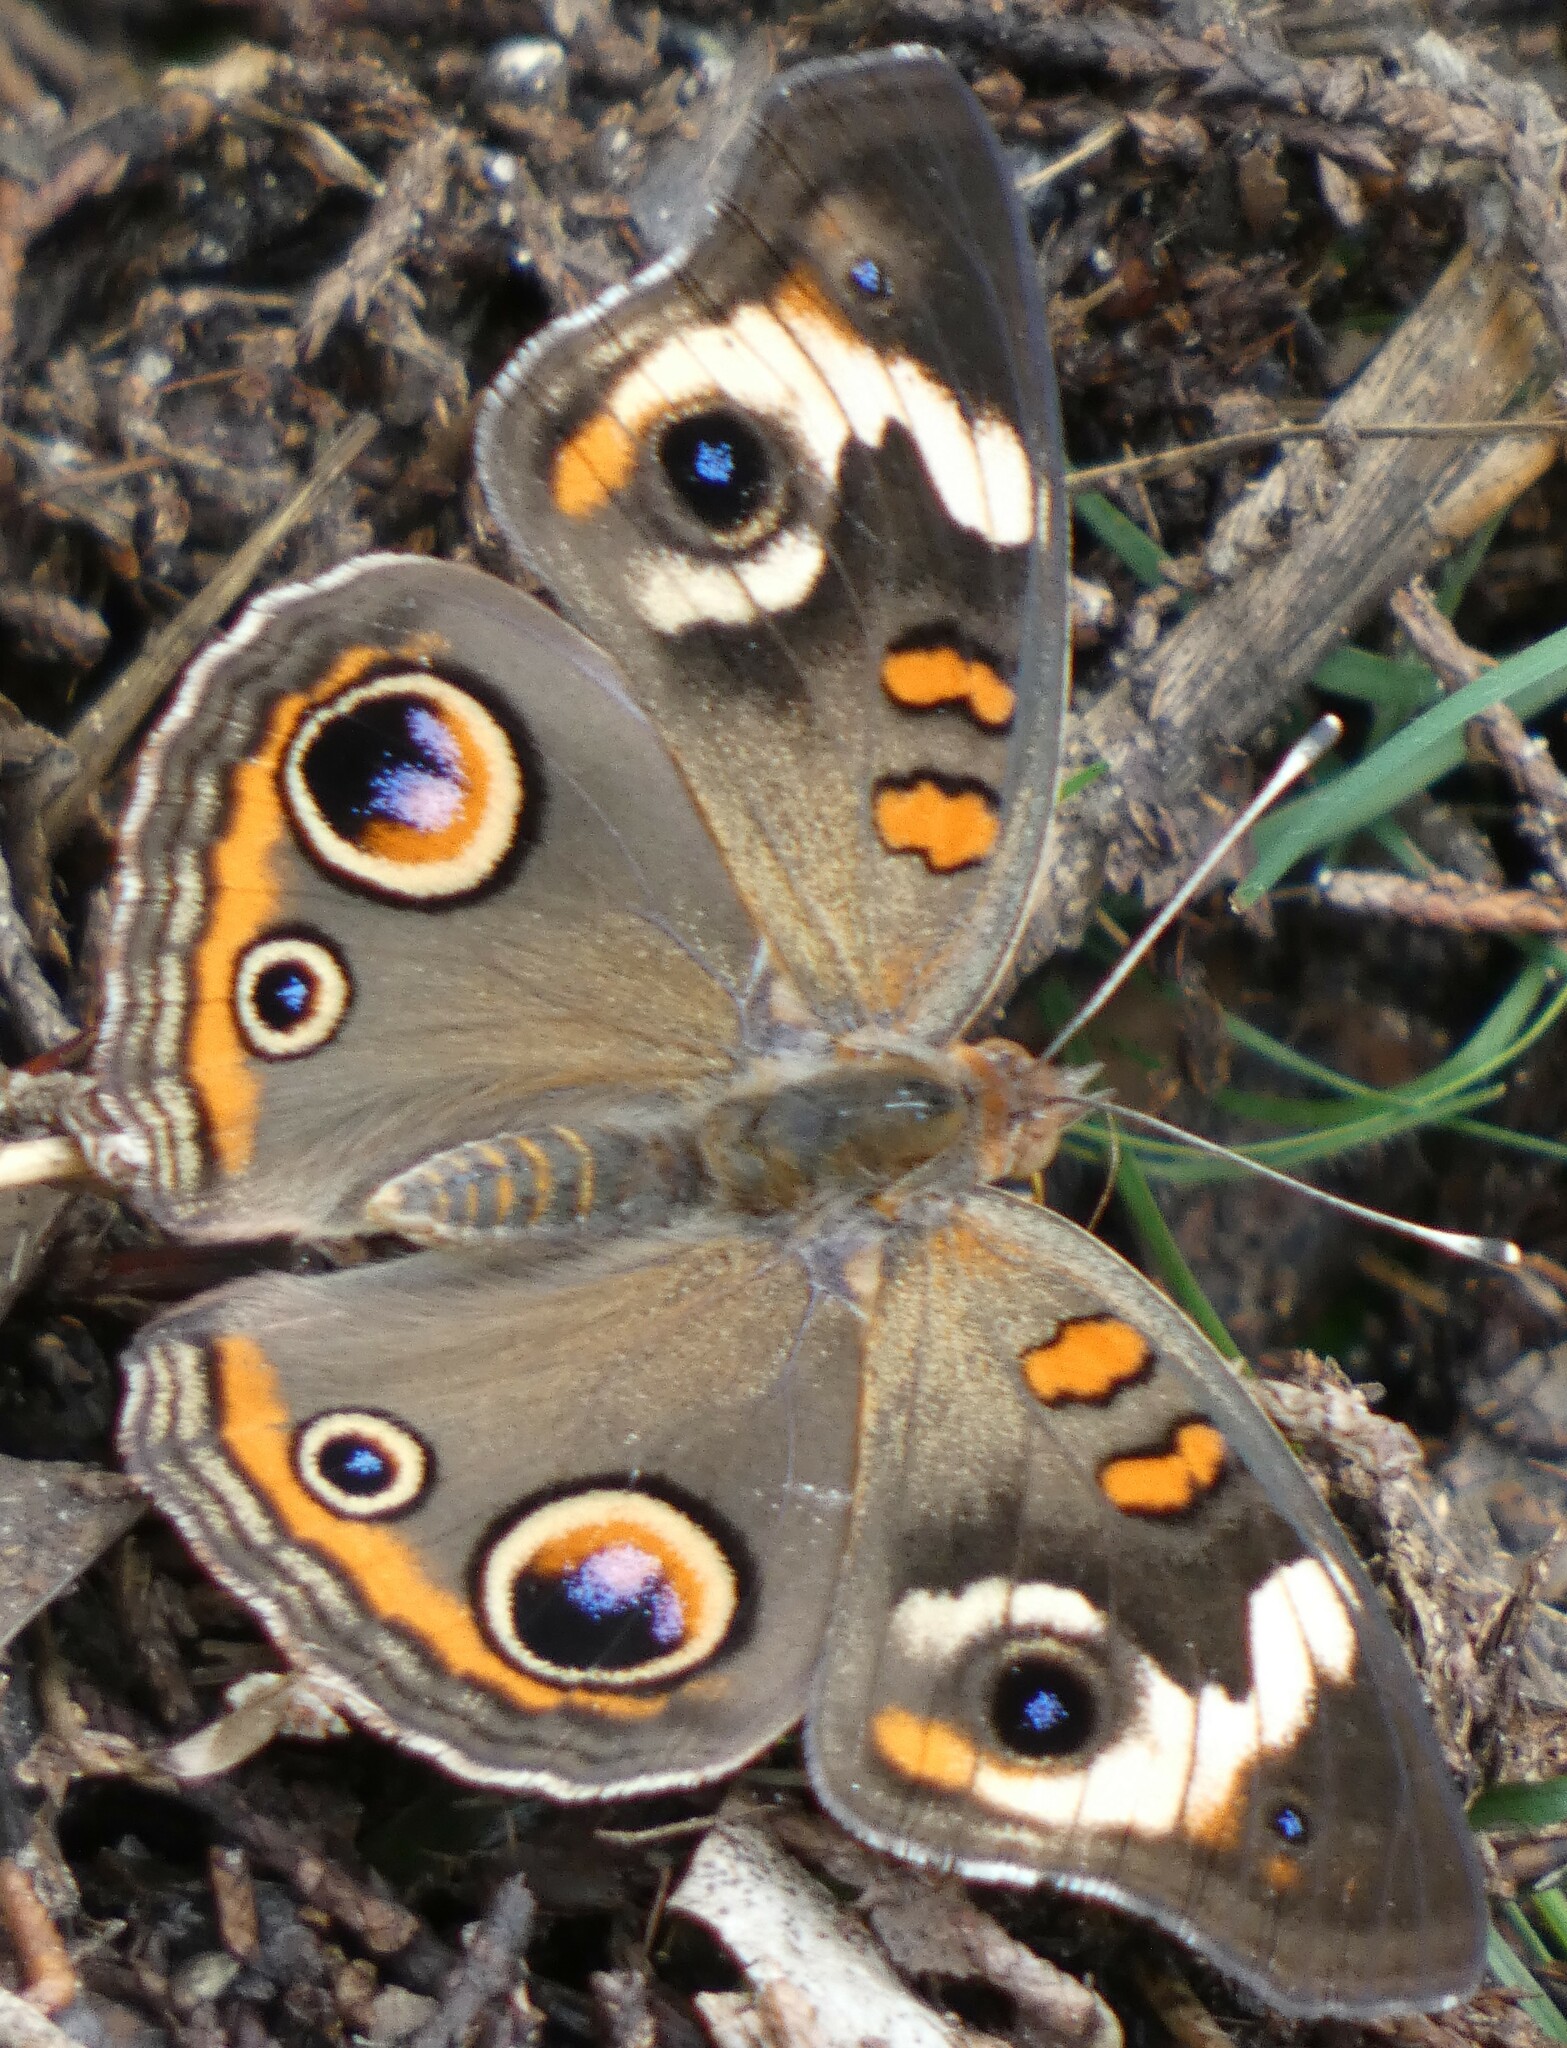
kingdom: Animalia
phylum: Arthropoda
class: Insecta
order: Lepidoptera
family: Nymphalidae
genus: Junonia
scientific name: Junonia coenia
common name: Common buckeye
